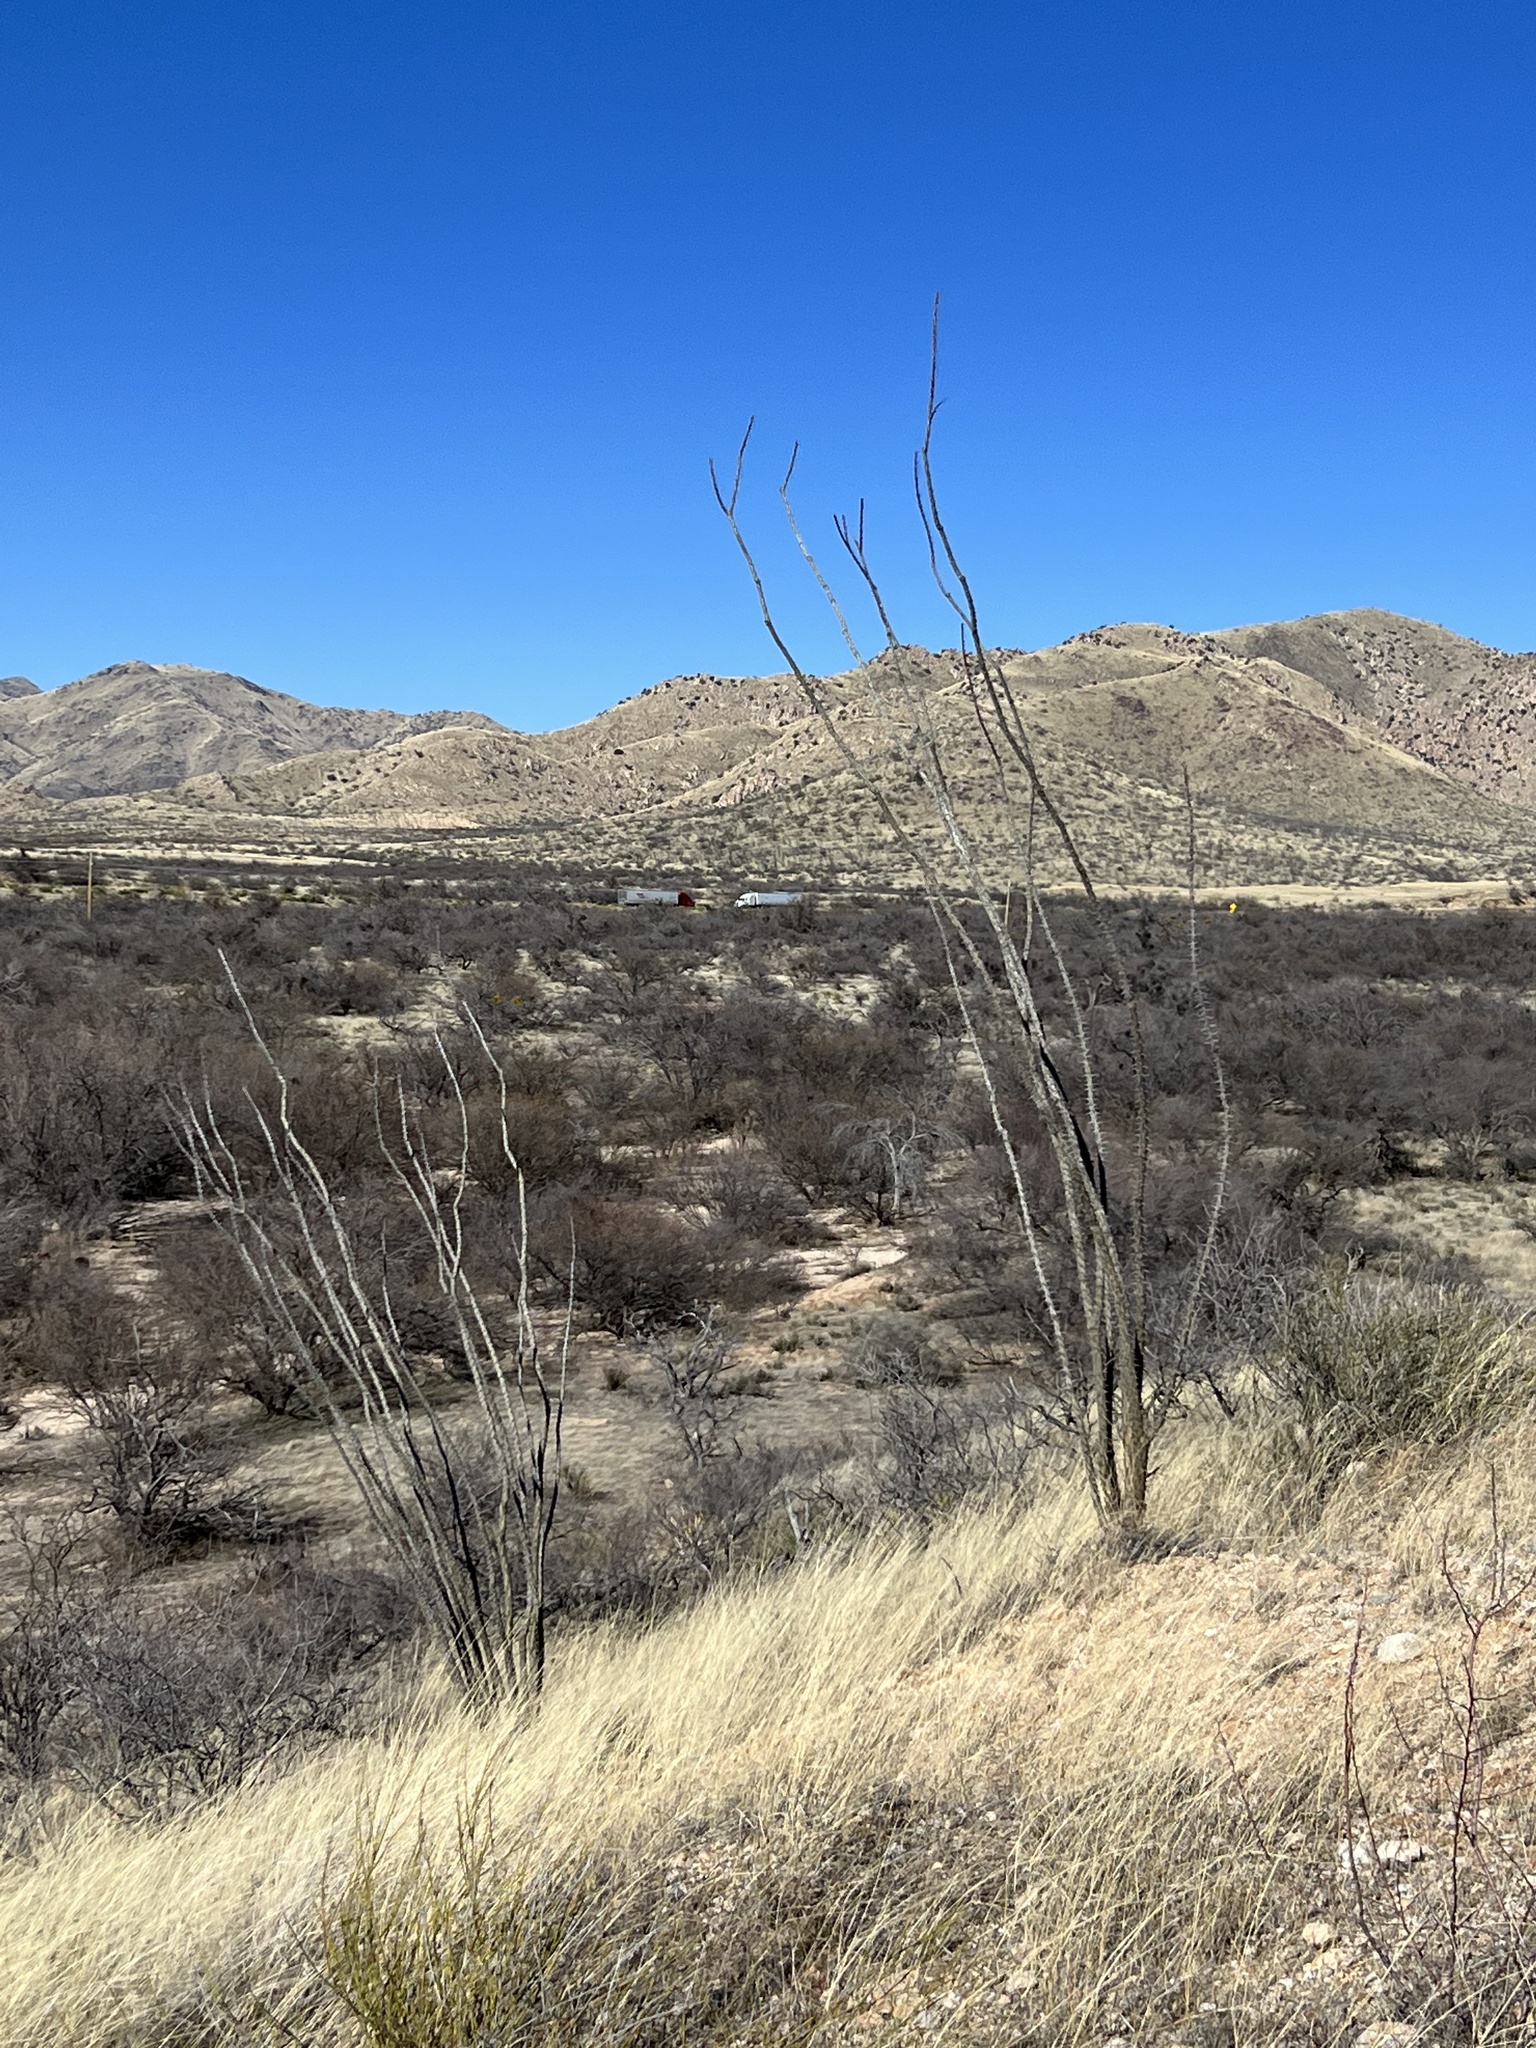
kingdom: Plantae
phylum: Tracheophyta
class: Magnoliopsida
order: Ericales
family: Fouquieriaceae
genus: Fouquieria
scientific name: Fouquieria splendens
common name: Vine-cactus
